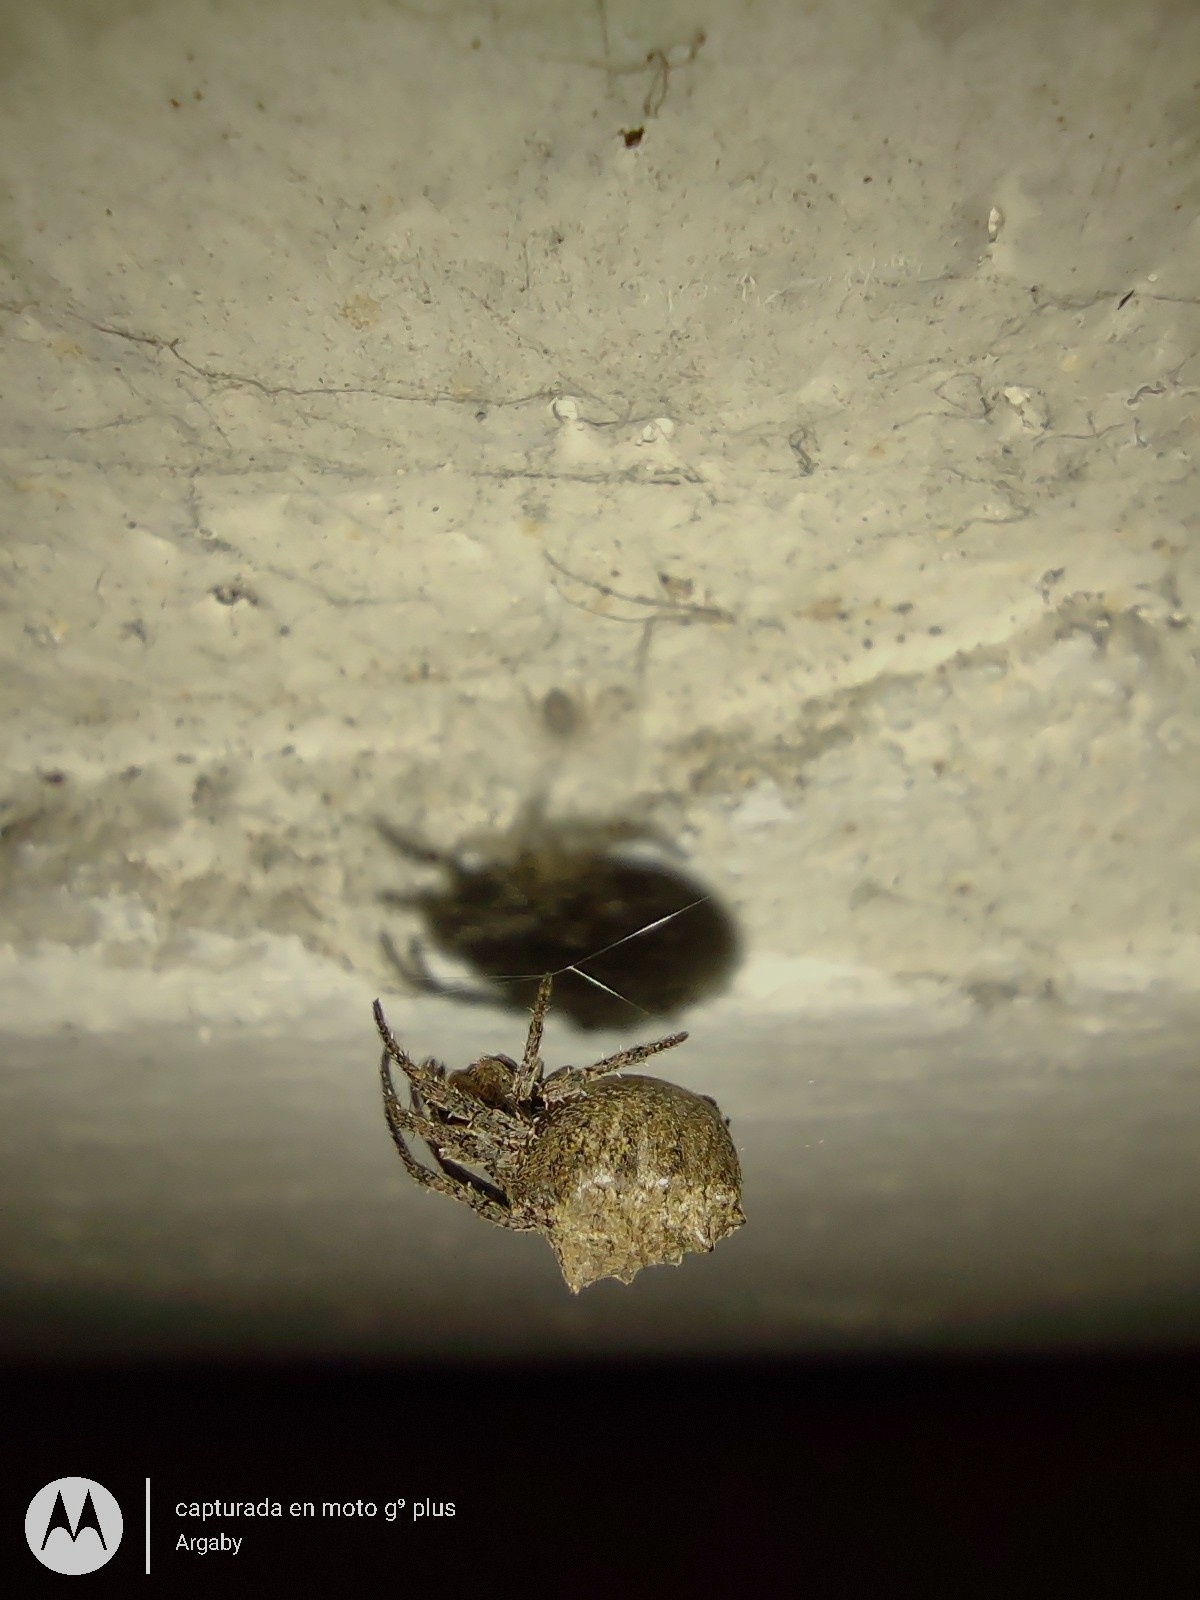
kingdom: Animalia
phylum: Arthropoda
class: Arachnida
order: Araneae
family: Araneidae
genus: Parawixia
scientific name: Parawixia audax
